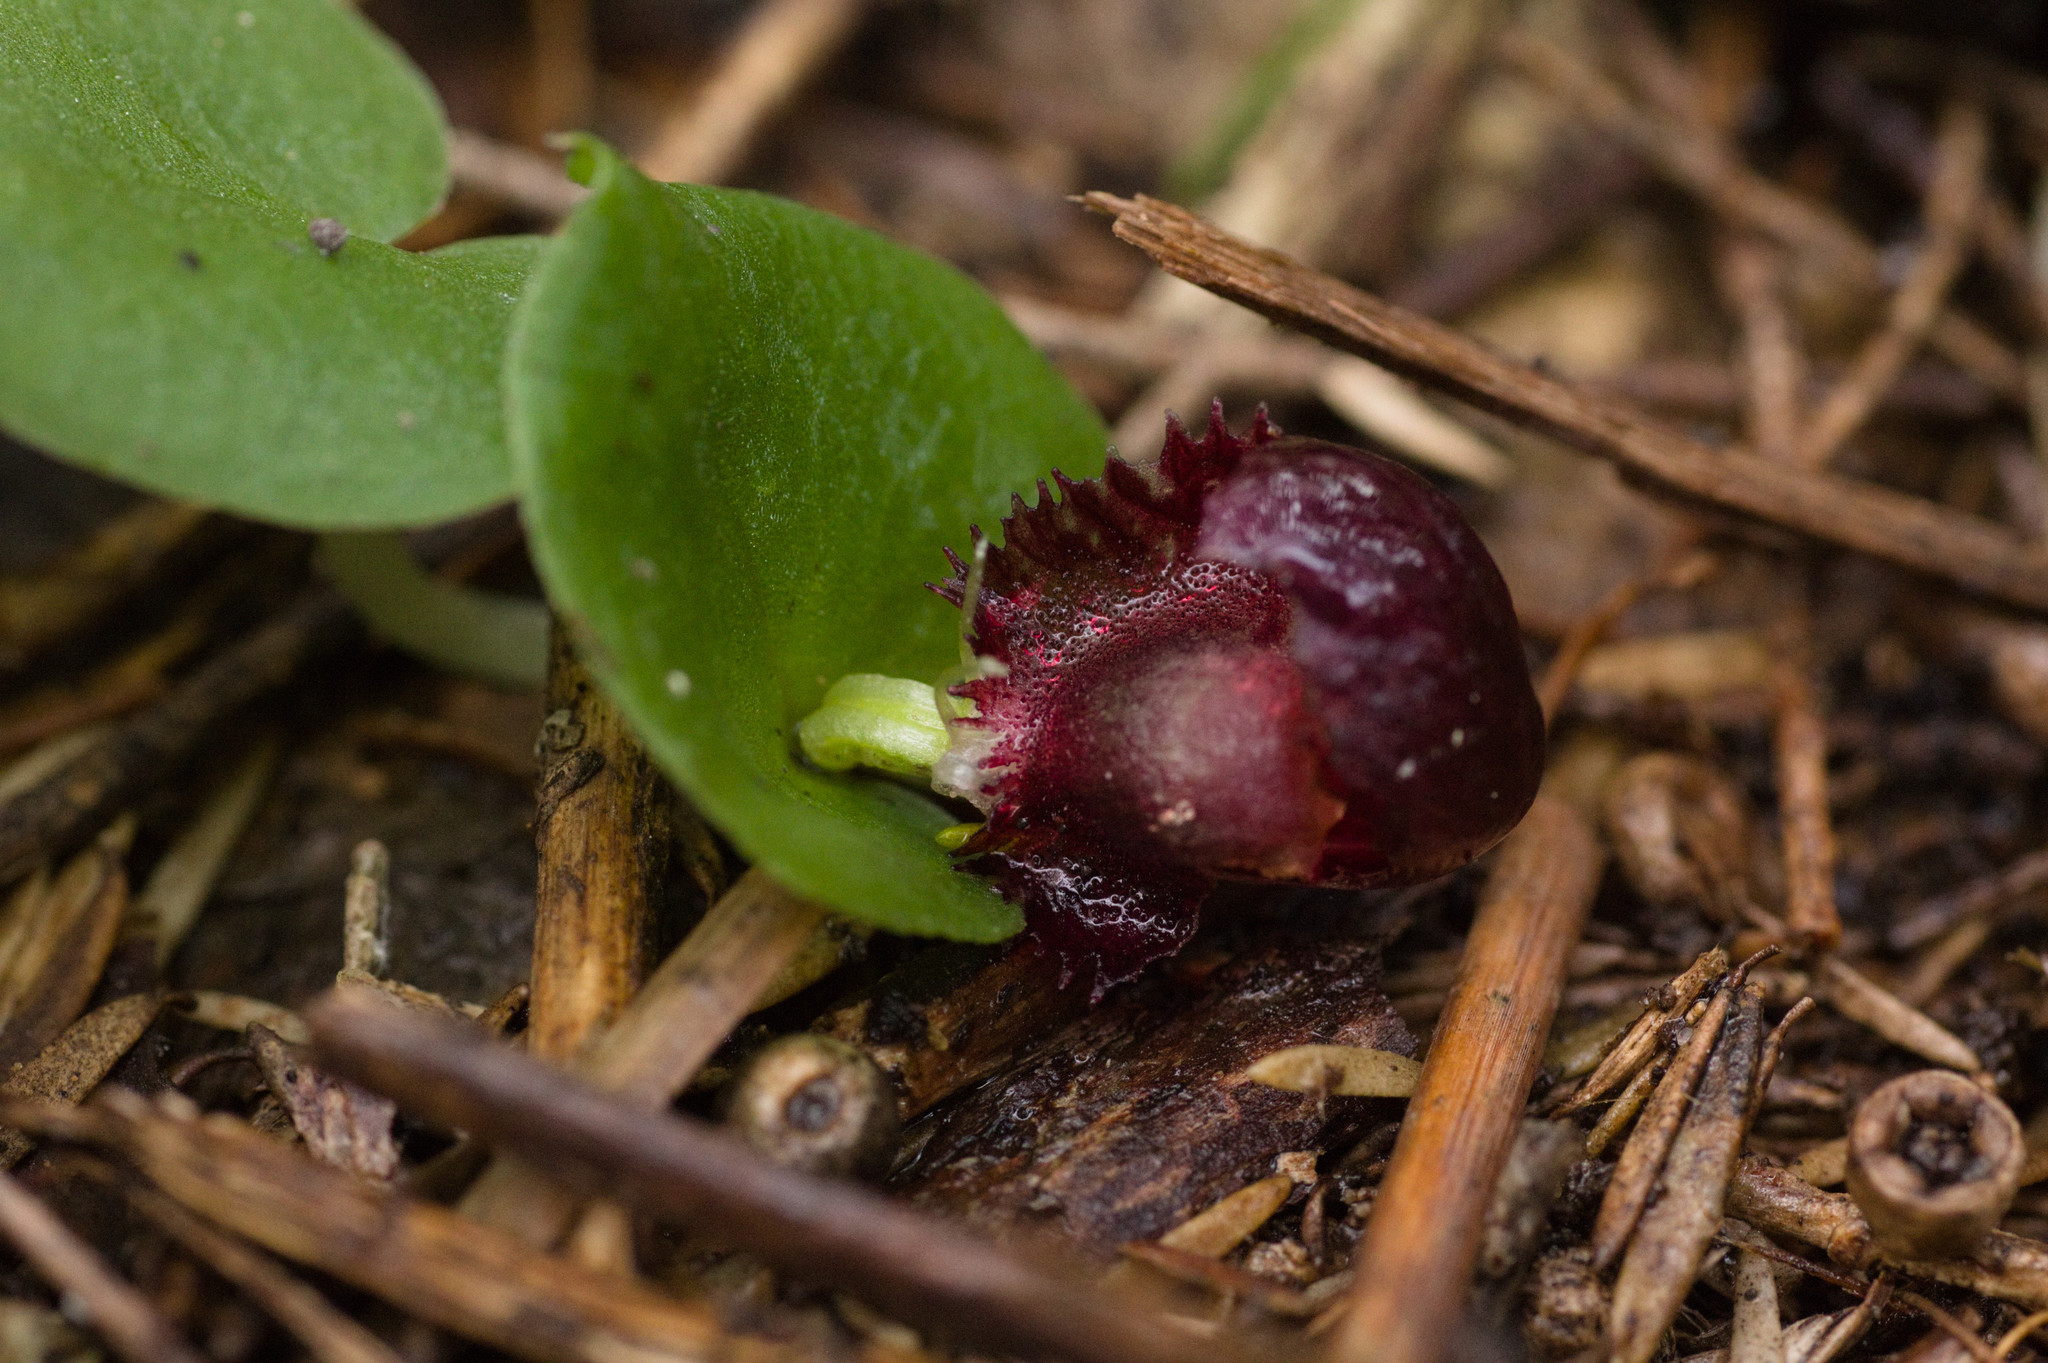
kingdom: Plantae
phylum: Tracheophyta
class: Liliopsida
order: Asparagales
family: Orchidaceae
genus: Corybas
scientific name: Corybas recurvus
